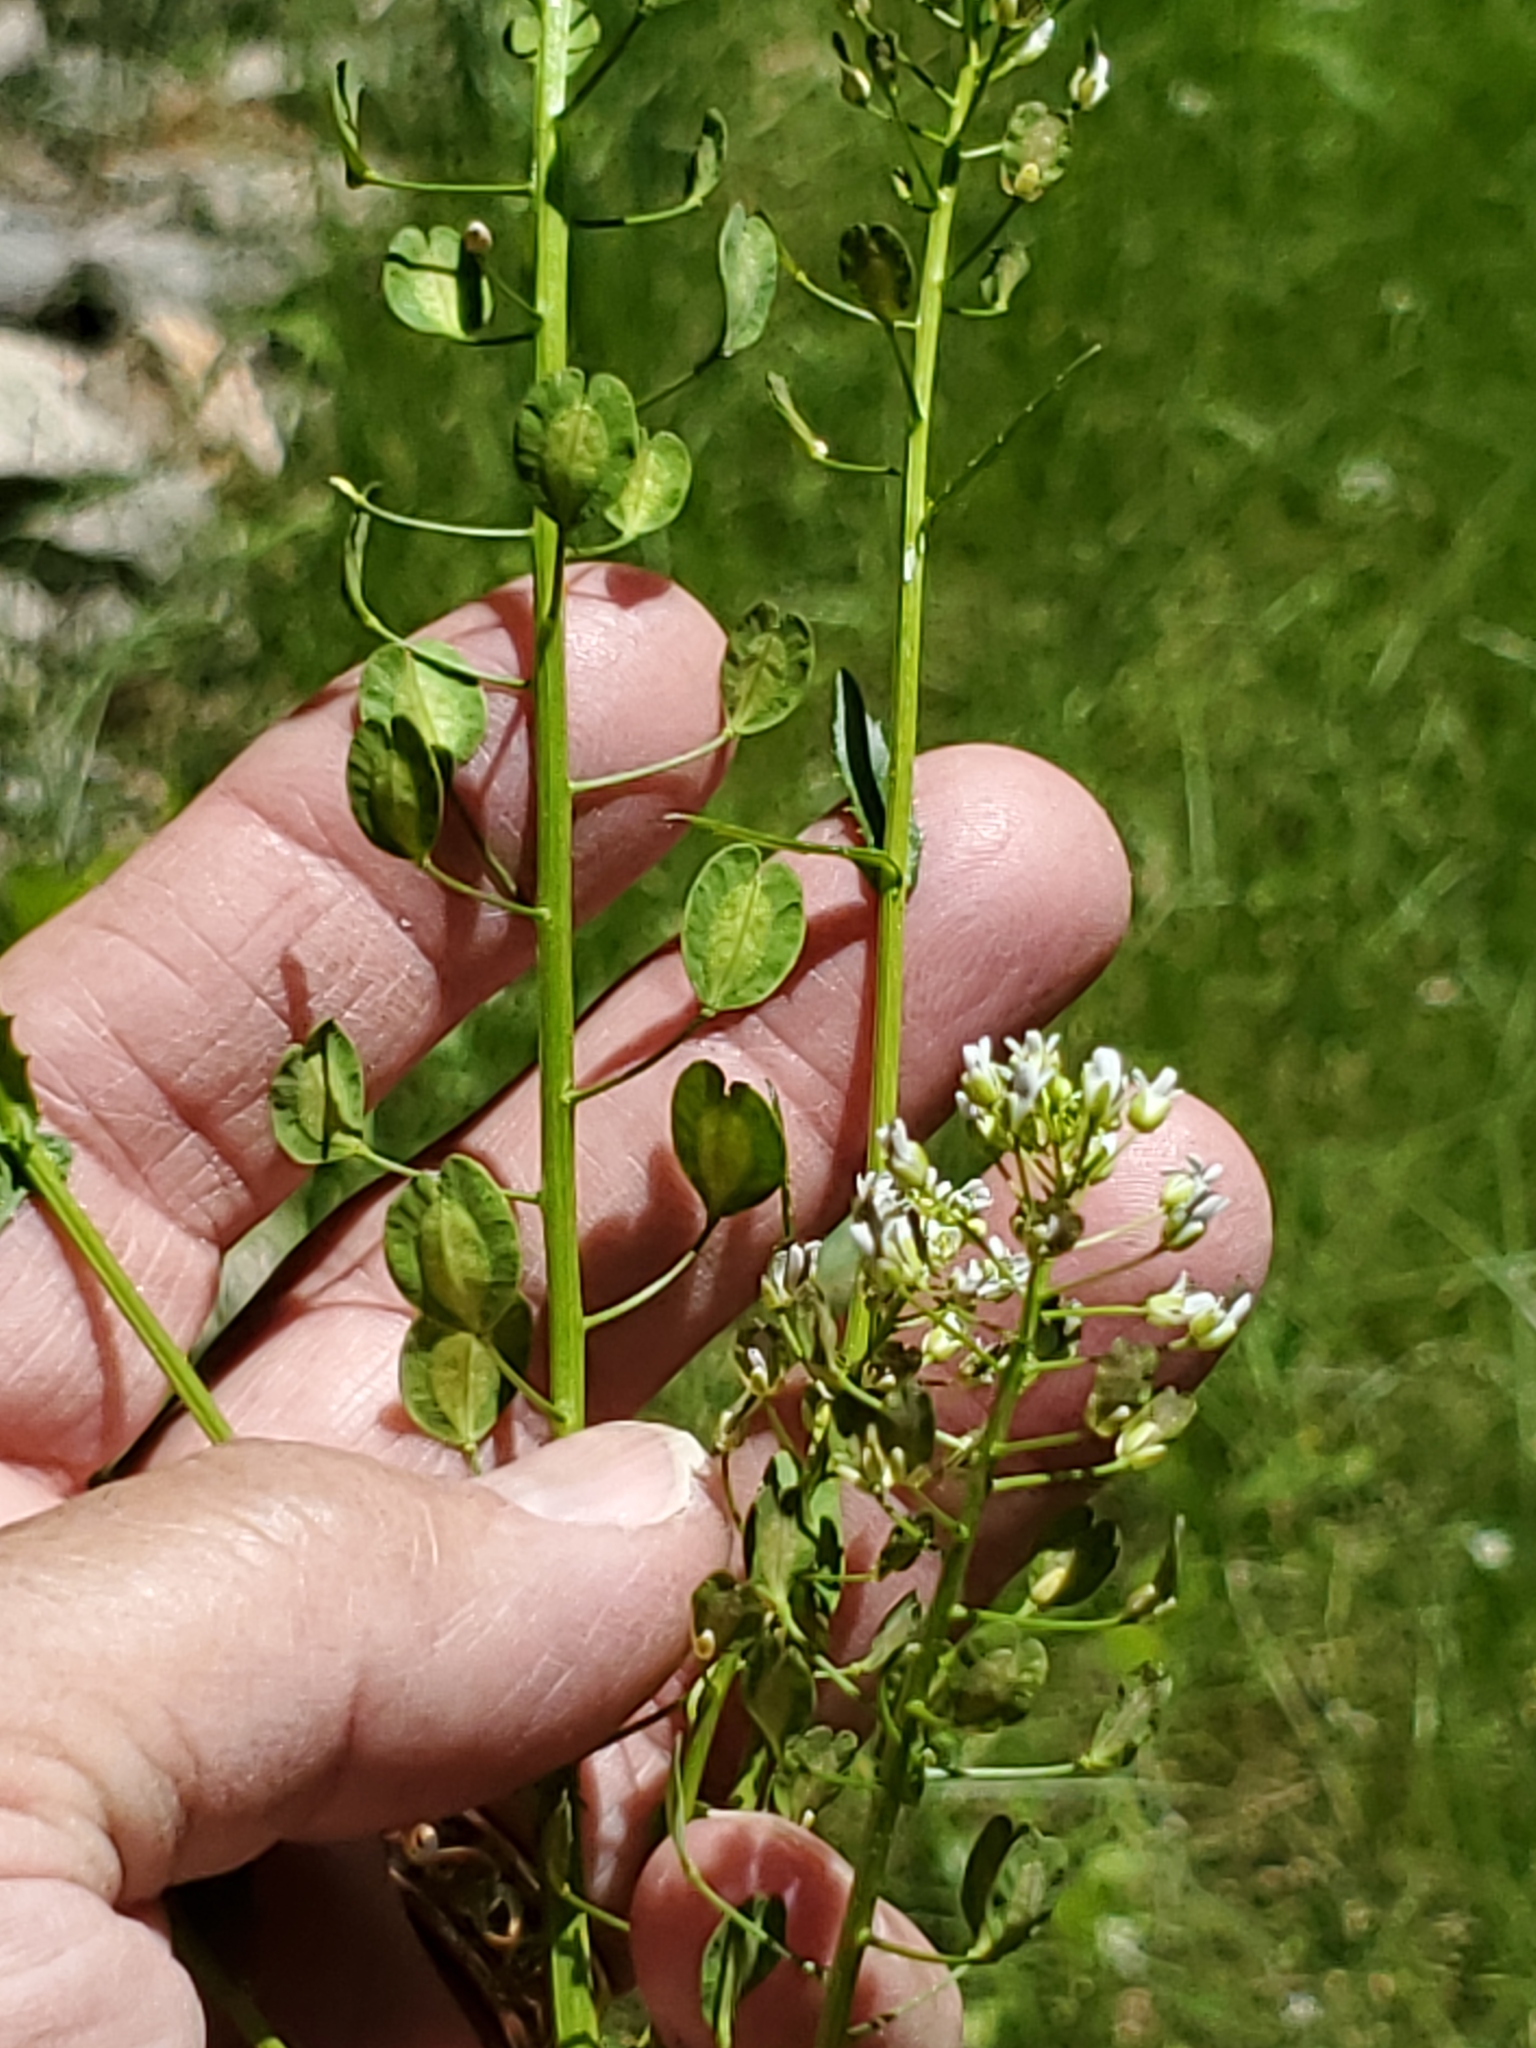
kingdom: Plantae
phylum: Tracheophyta
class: Magnoliopsida
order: Brassicales
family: Brassicaceae
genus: Thlaspi
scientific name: Thlaspi arvense
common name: Field pennycress
